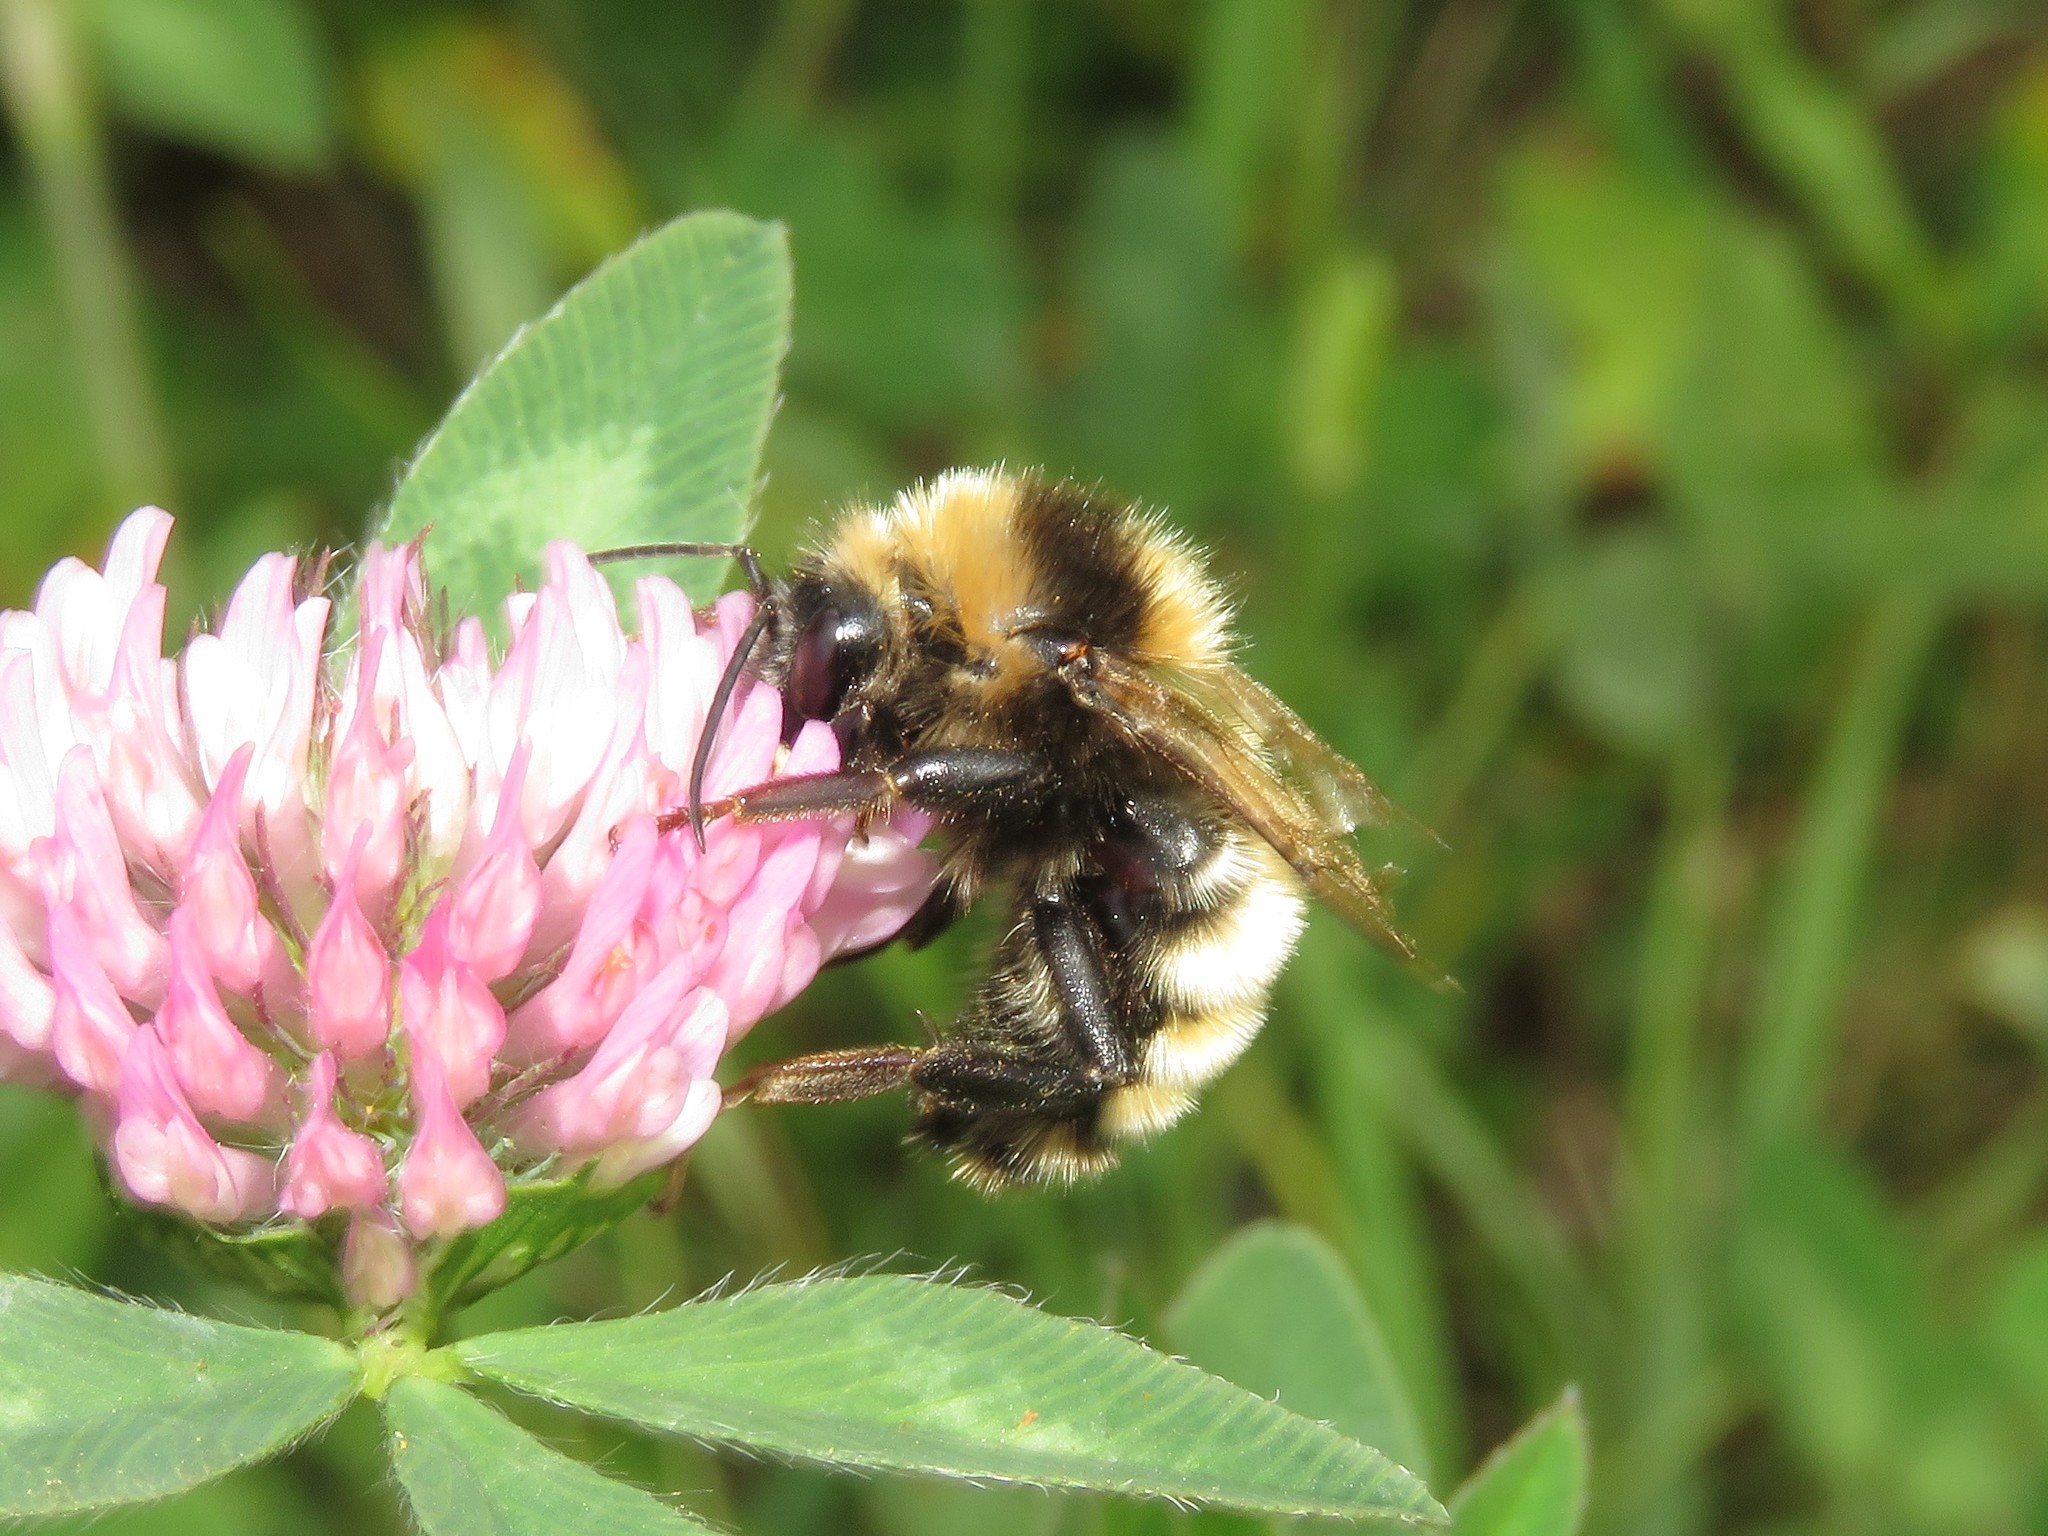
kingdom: Animalia
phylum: Arthropoda
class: Insecta
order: Hymenoptera
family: Apidae
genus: Bombus
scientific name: Bombus borealis
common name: Northern amber bumble bee
